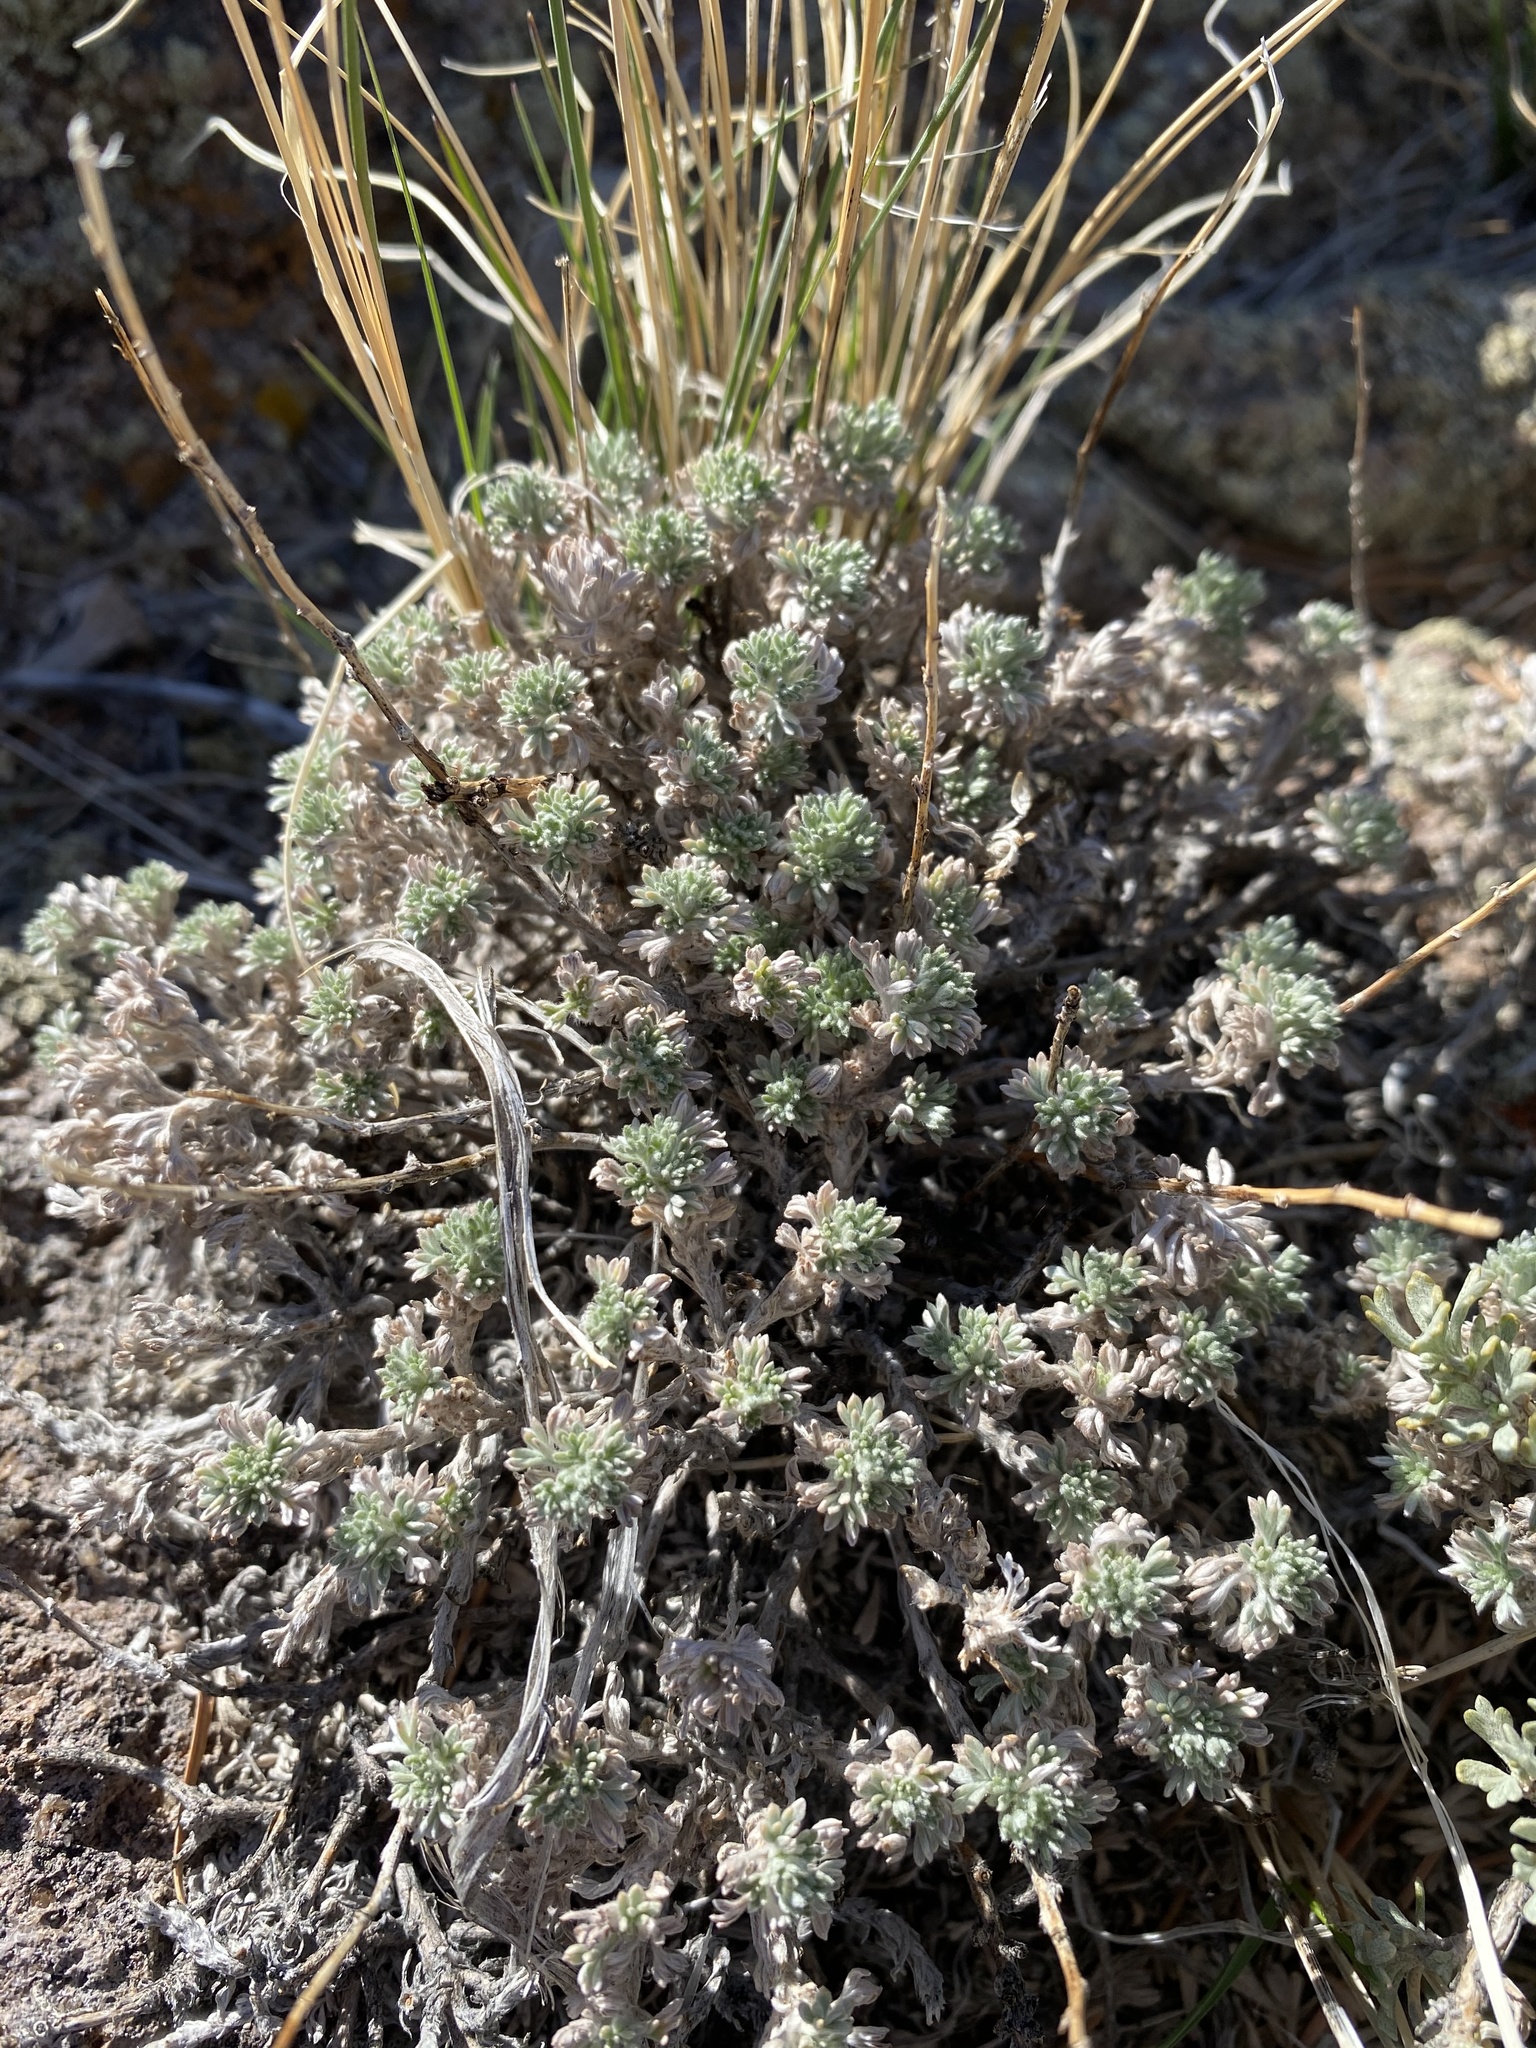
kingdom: Plantae
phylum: Tracheophyta
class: Magnoliopsida
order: Asterales
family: Asteraceae
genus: Artemisia
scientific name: Artemisia frigida
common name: Prairie sagewort
